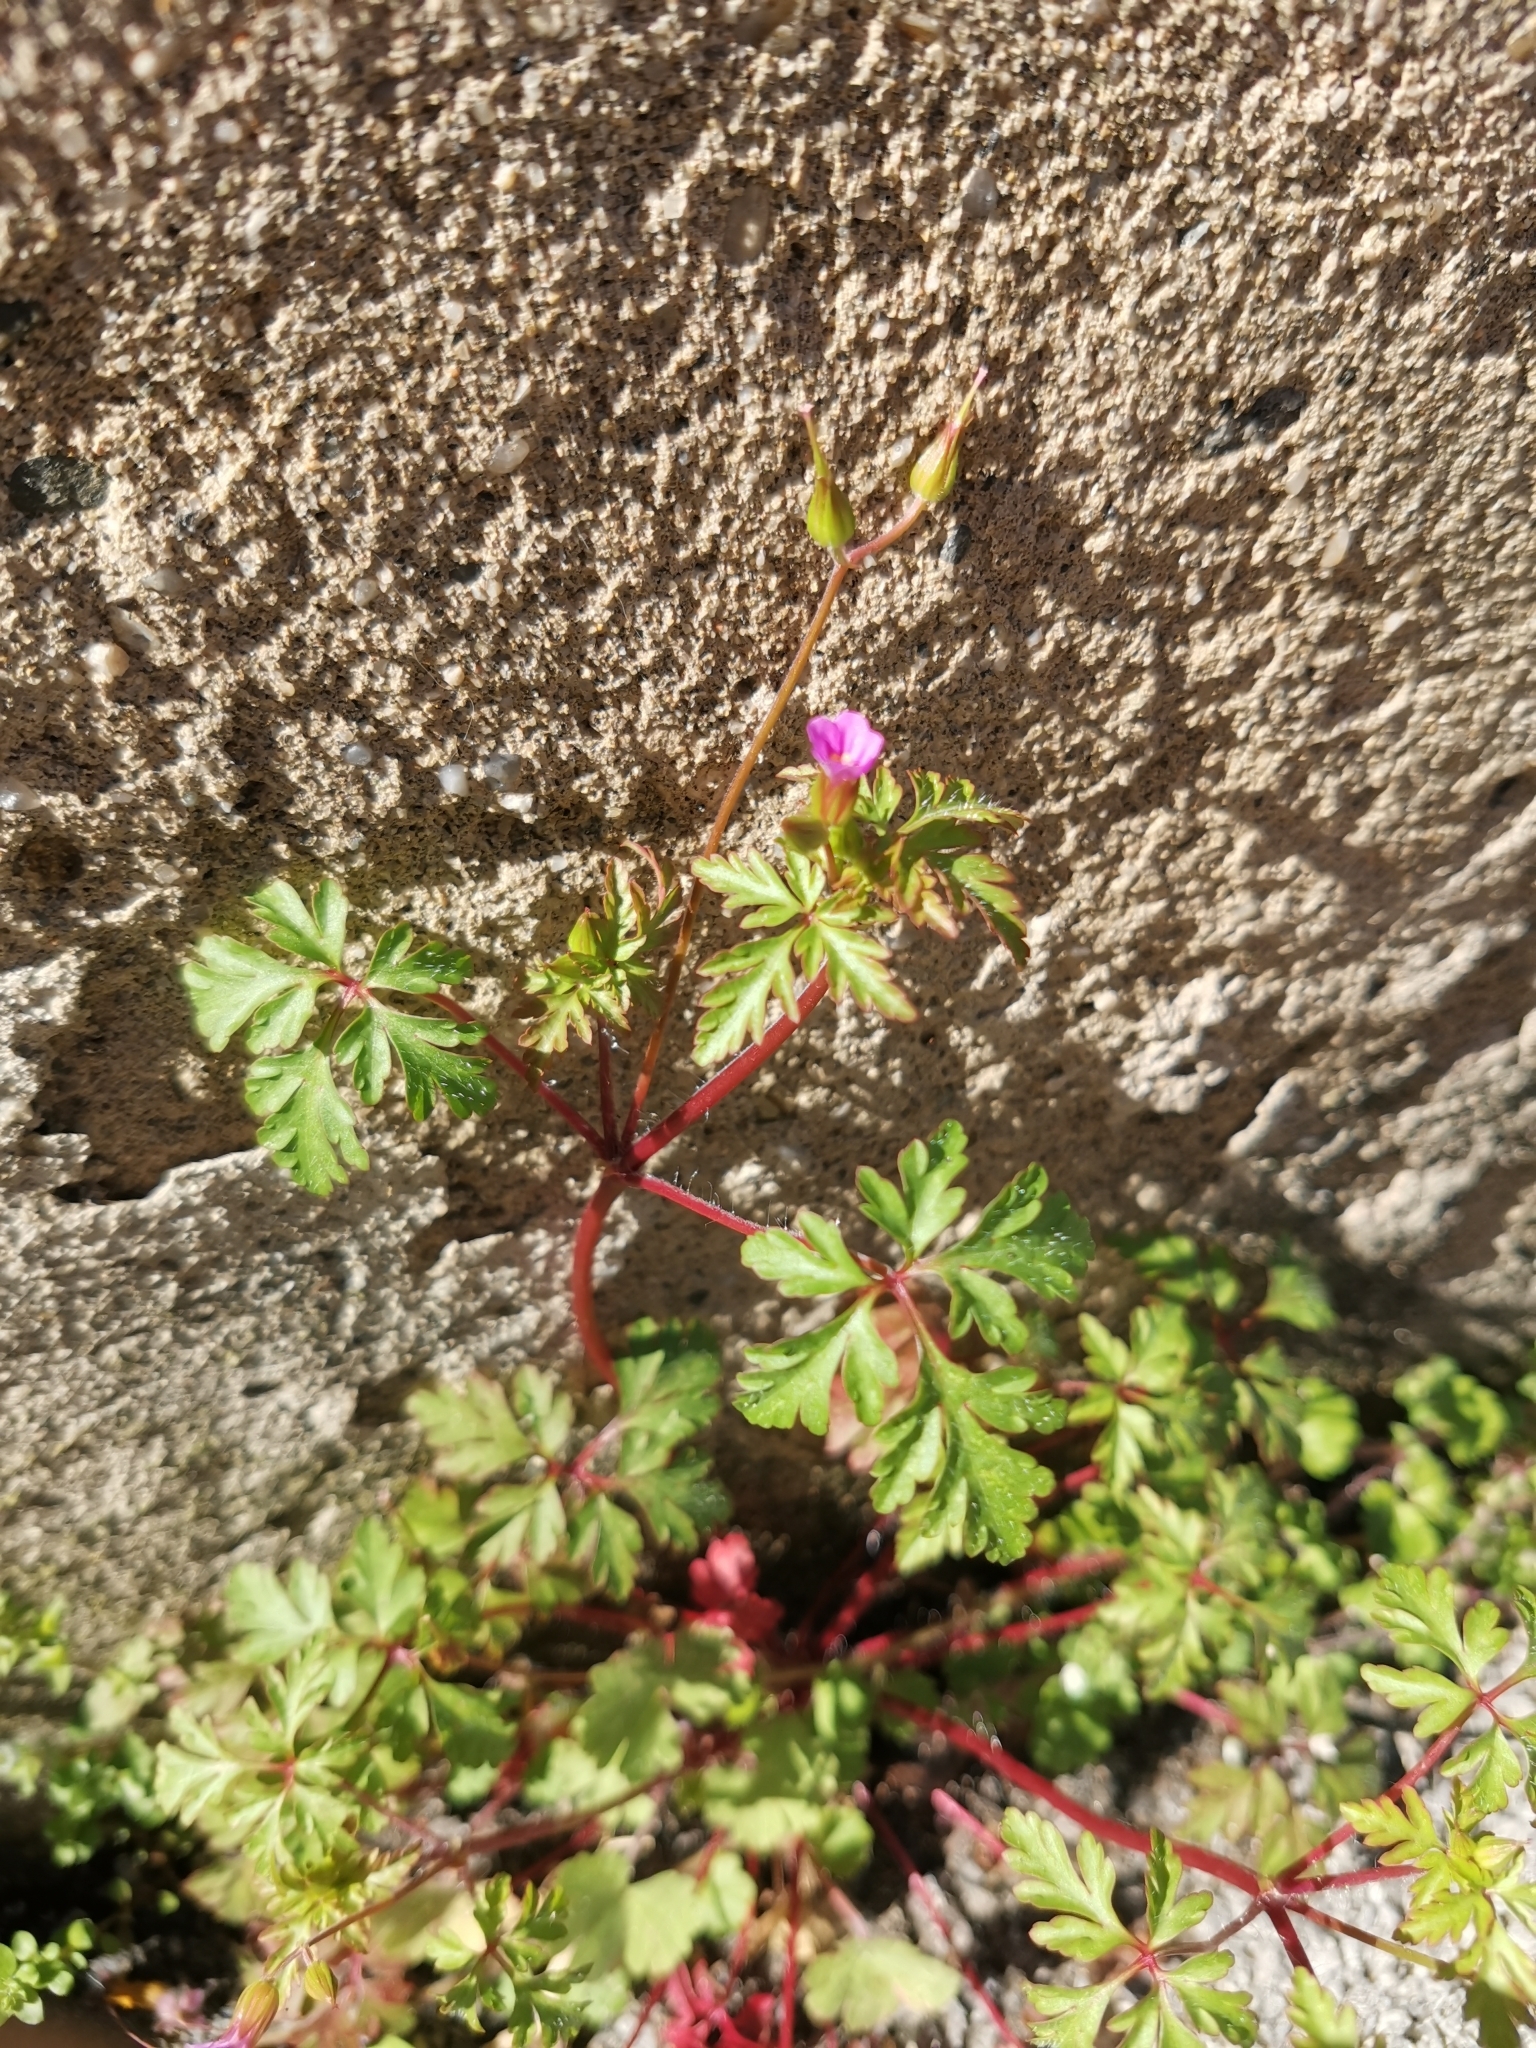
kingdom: Plantae
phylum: Tracheophyta
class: Magnoliopsida
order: Geraniales
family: Geraniaceae
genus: Geranium
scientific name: Geranium purpureum
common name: Little-robin
